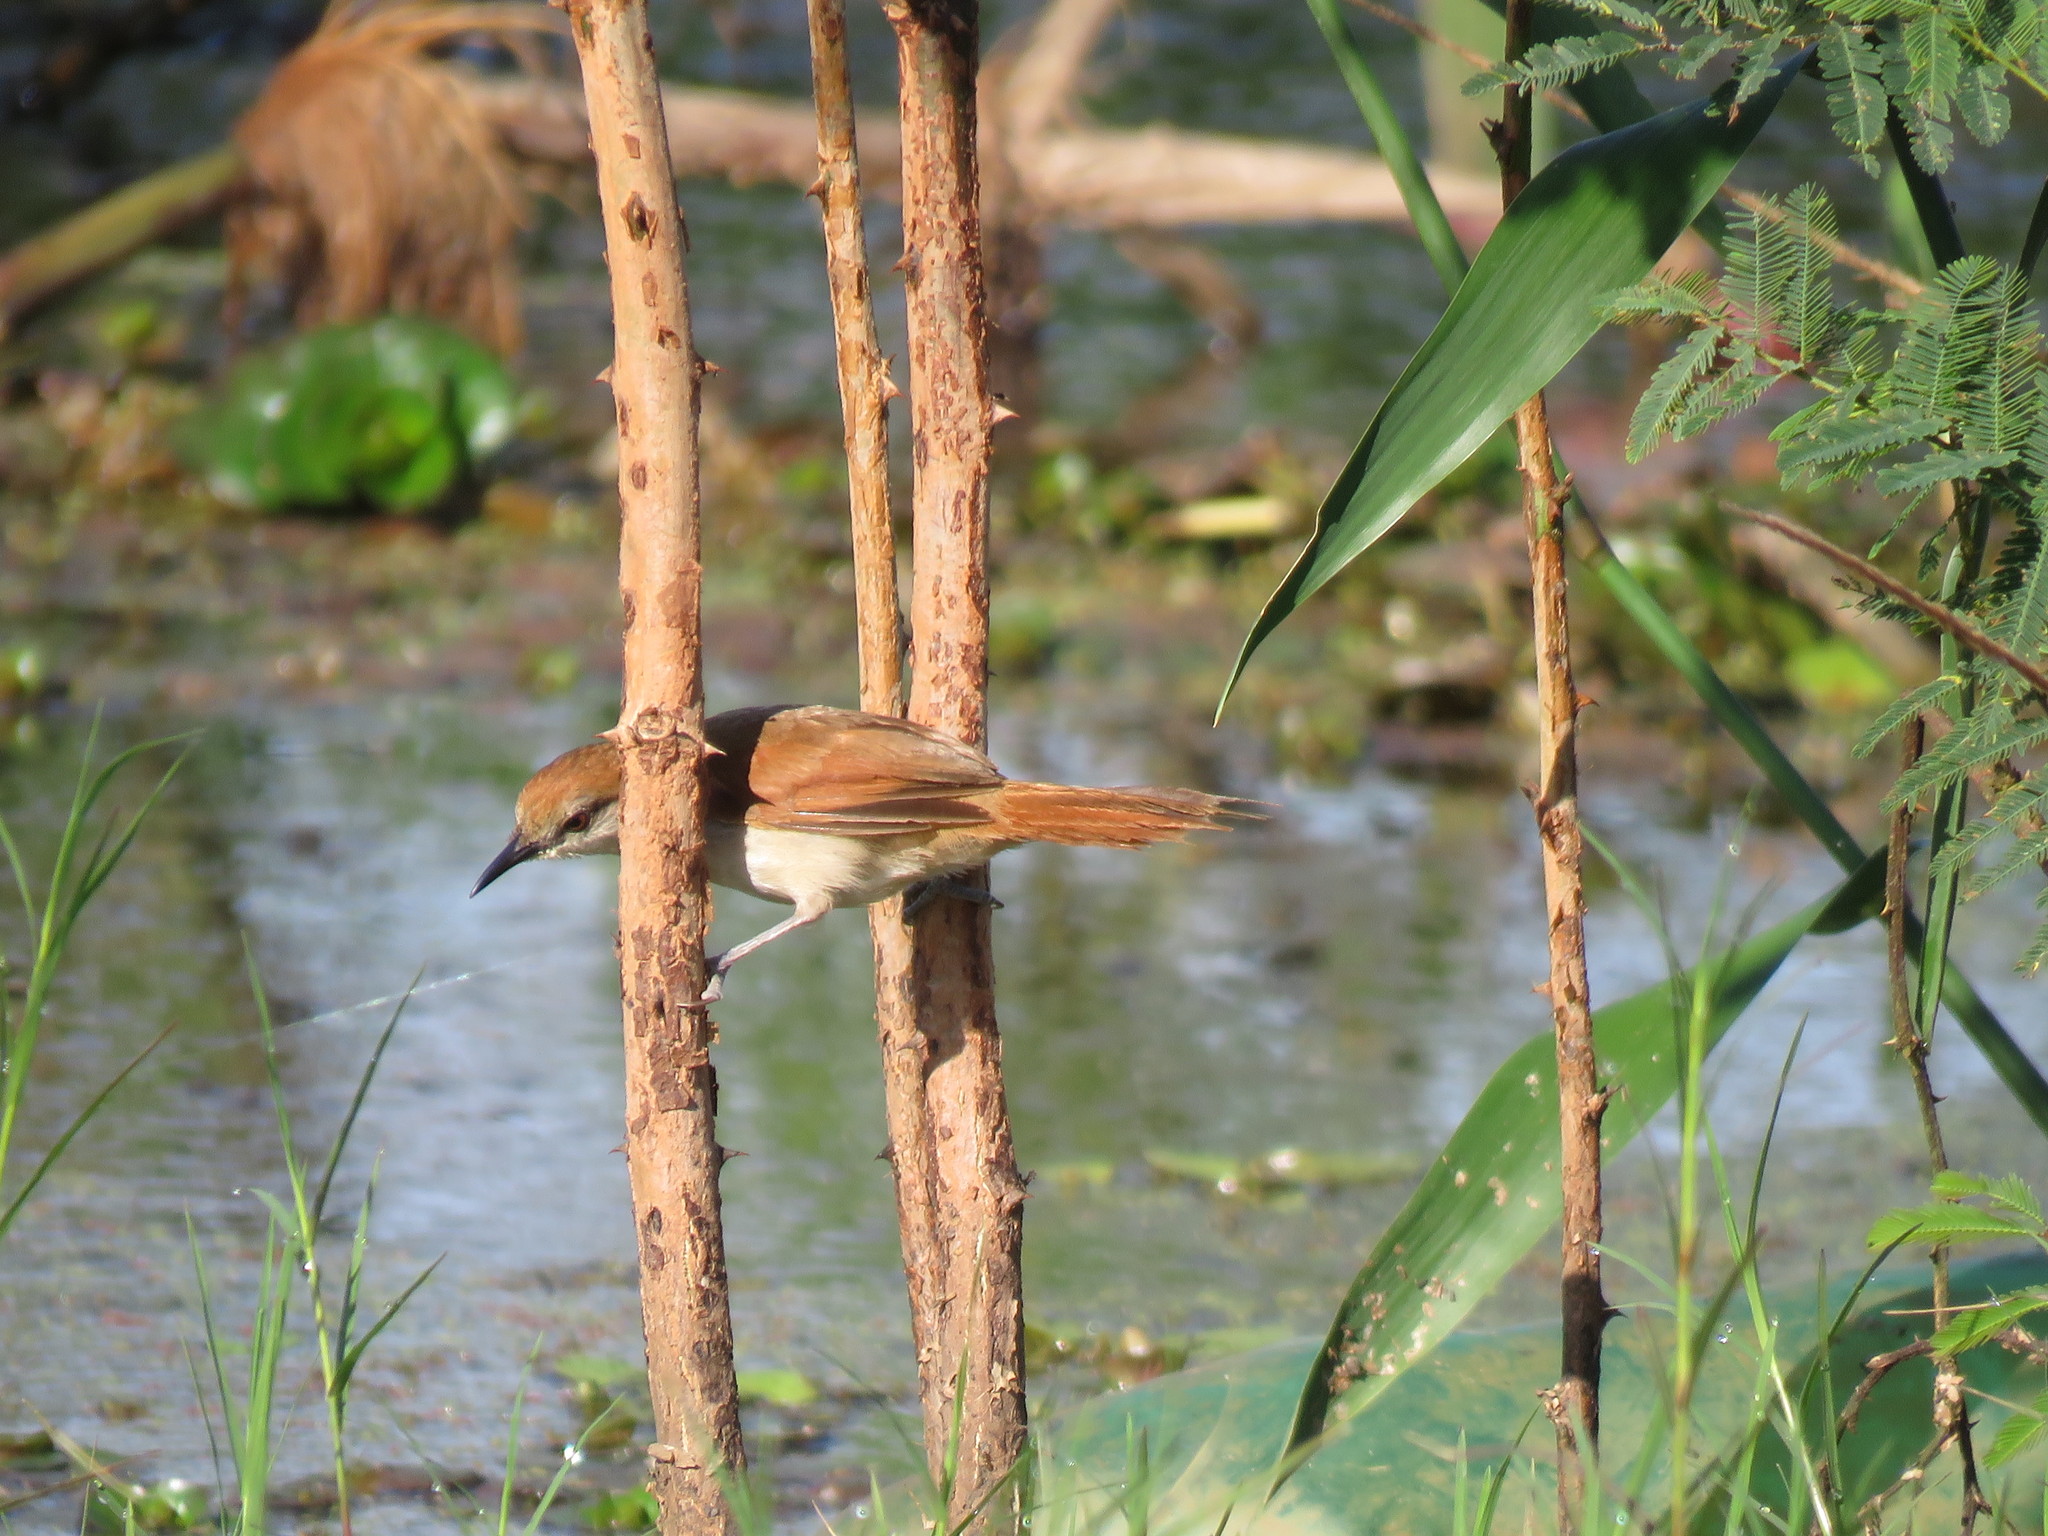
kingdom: Animalia
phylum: Chordata
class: Aves
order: Passeriformes
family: Furnariidae
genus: Certhiaxis
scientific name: Certhiaxis cinnamomeus
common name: Yellow-chinned spinetail
